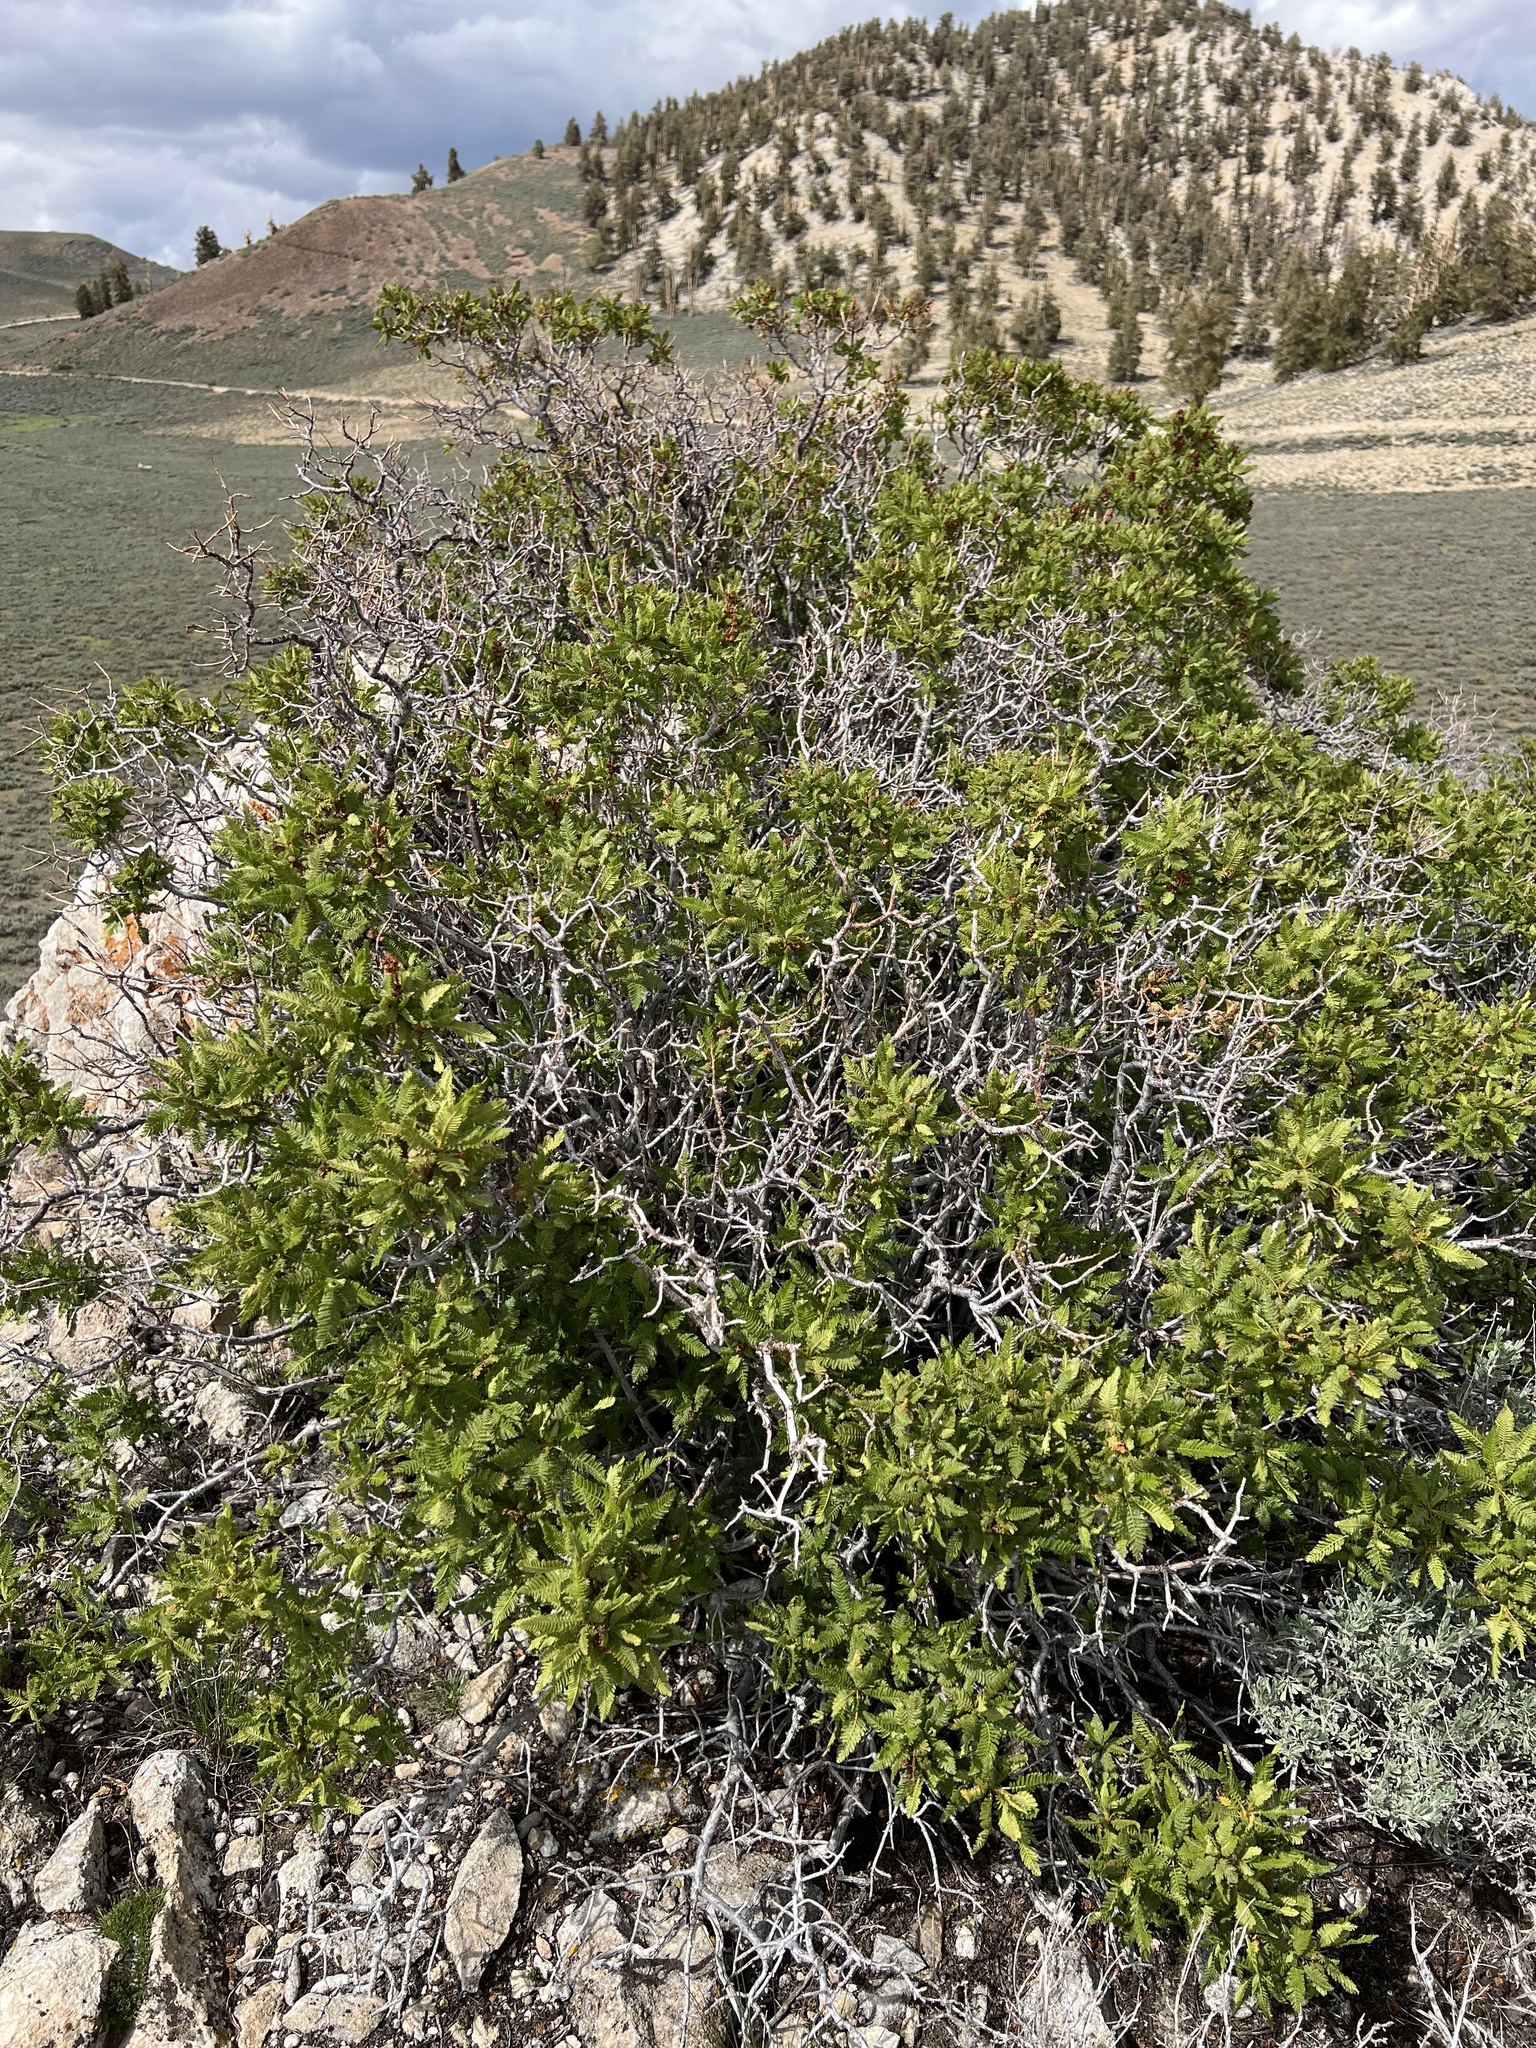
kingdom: Plantae
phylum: Tracheophyta
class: Magnoliopsida
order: Rosales
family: Rosaceae
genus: Chamaebatiaria
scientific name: Chamaebatiaria millefolium
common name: Fernbush
